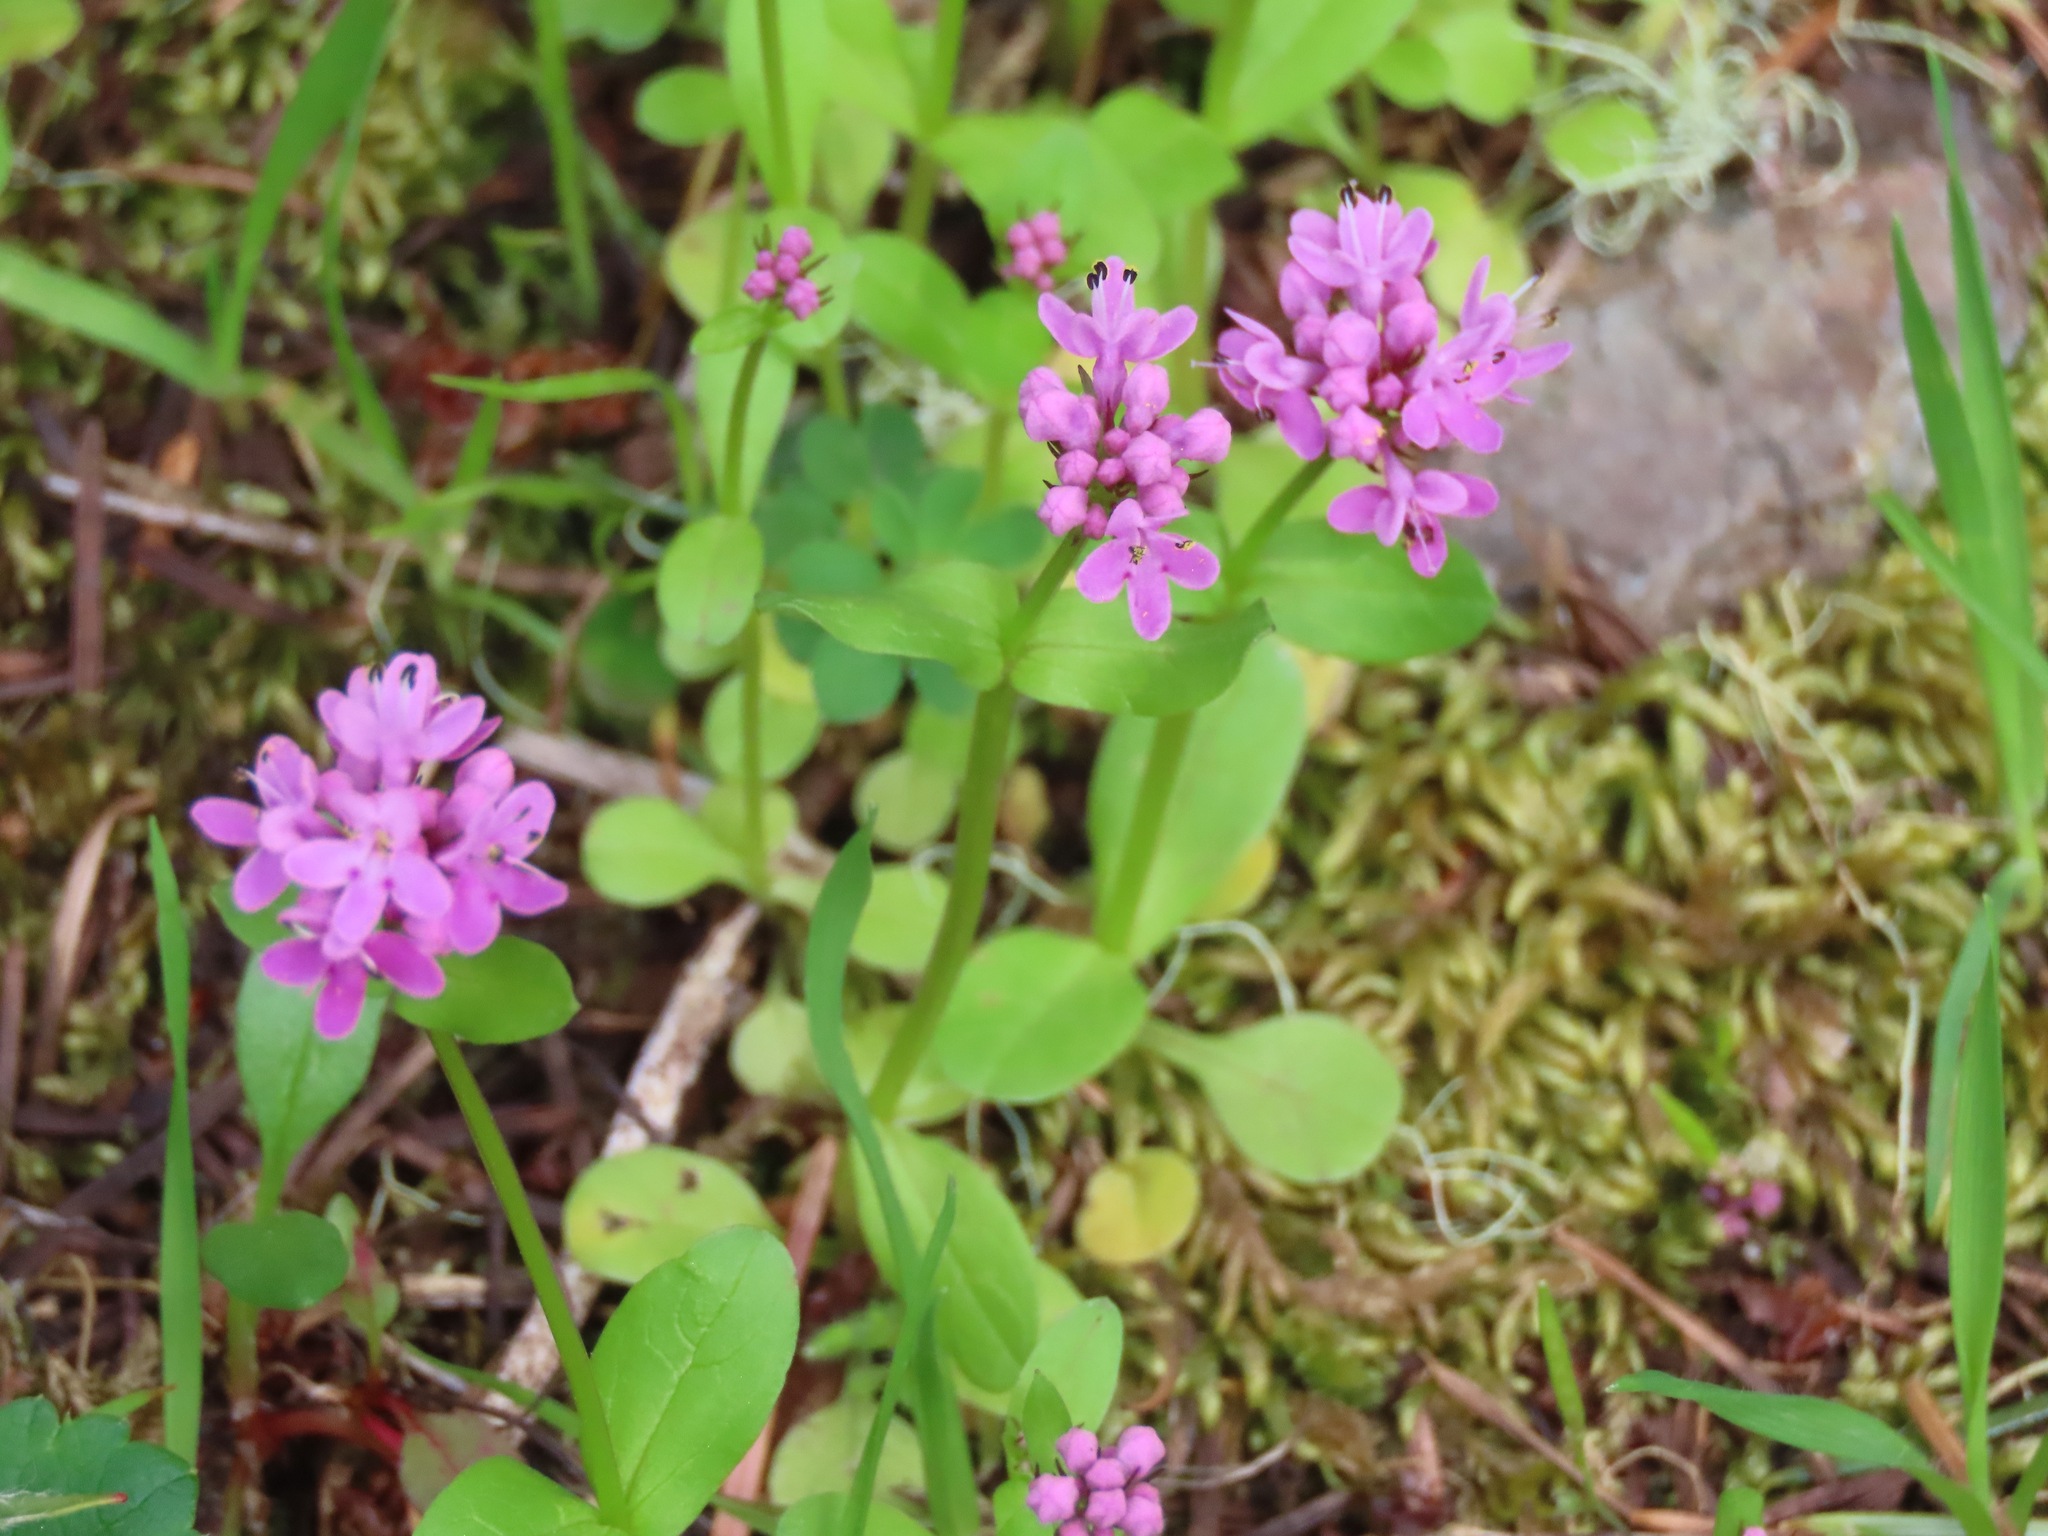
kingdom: Plantae
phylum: Tracheophyta
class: Magnoliopsida
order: Dipsacales
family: Caprifoliaceae
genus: Plectritis
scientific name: Plectritis congesta
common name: Pink plectritis
